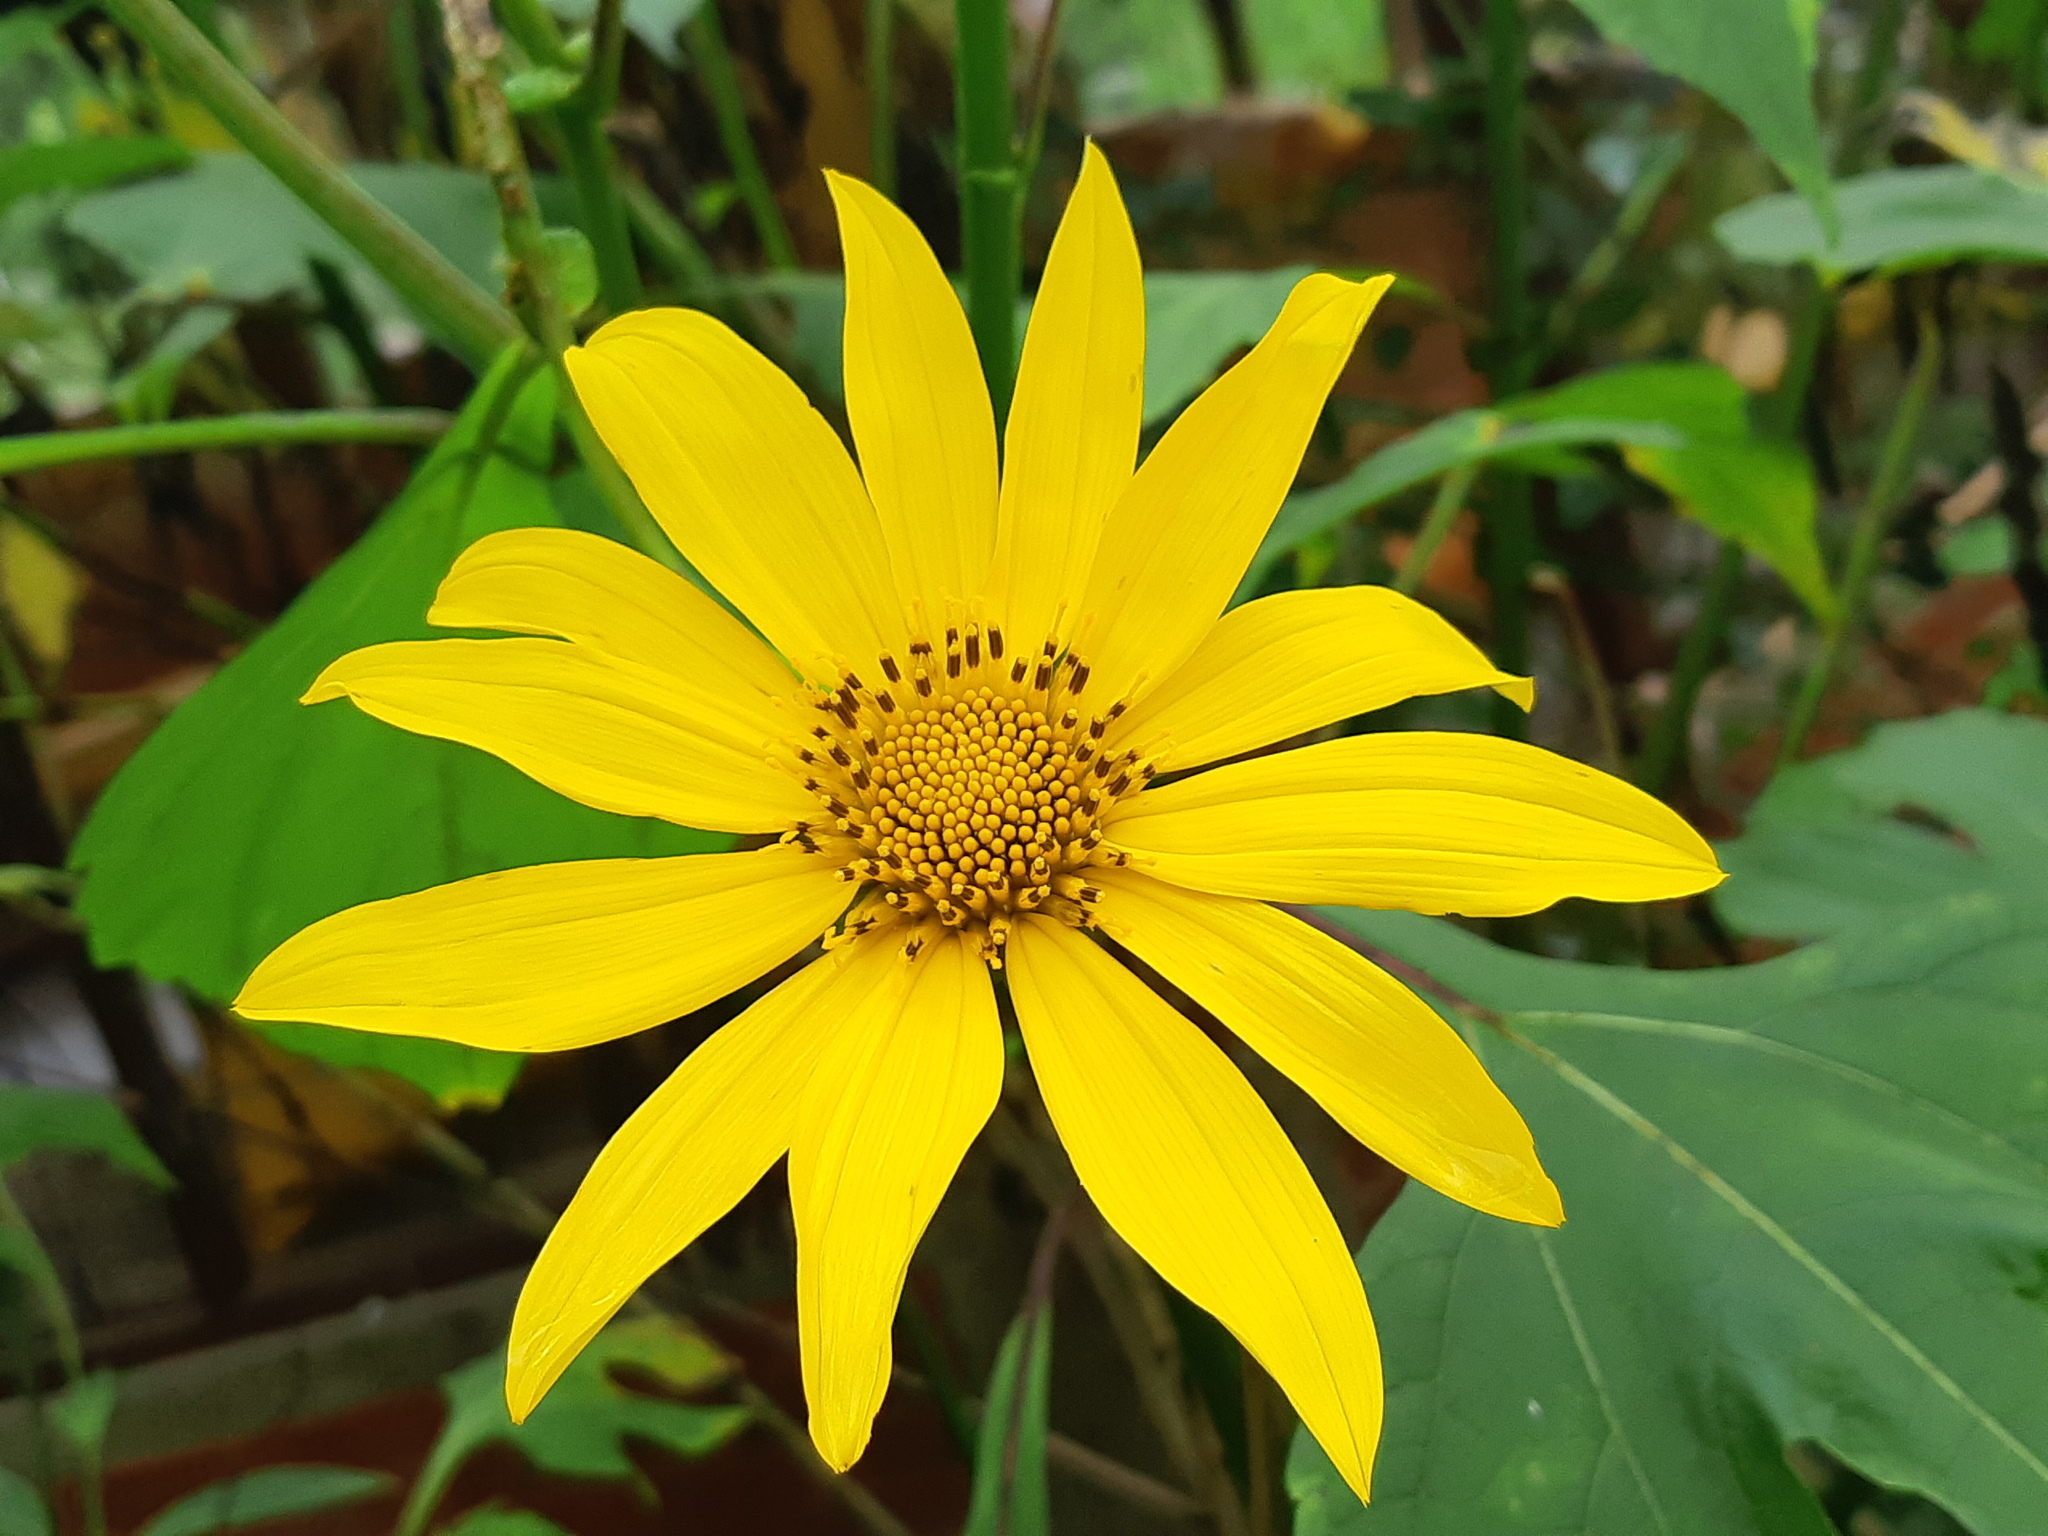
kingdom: Plantae
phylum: Tracheophyta
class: Magnoliopsida
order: Asterales
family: Asteraceae
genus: Tithonia
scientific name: Tithonia diversifolia
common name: Tree marigold
